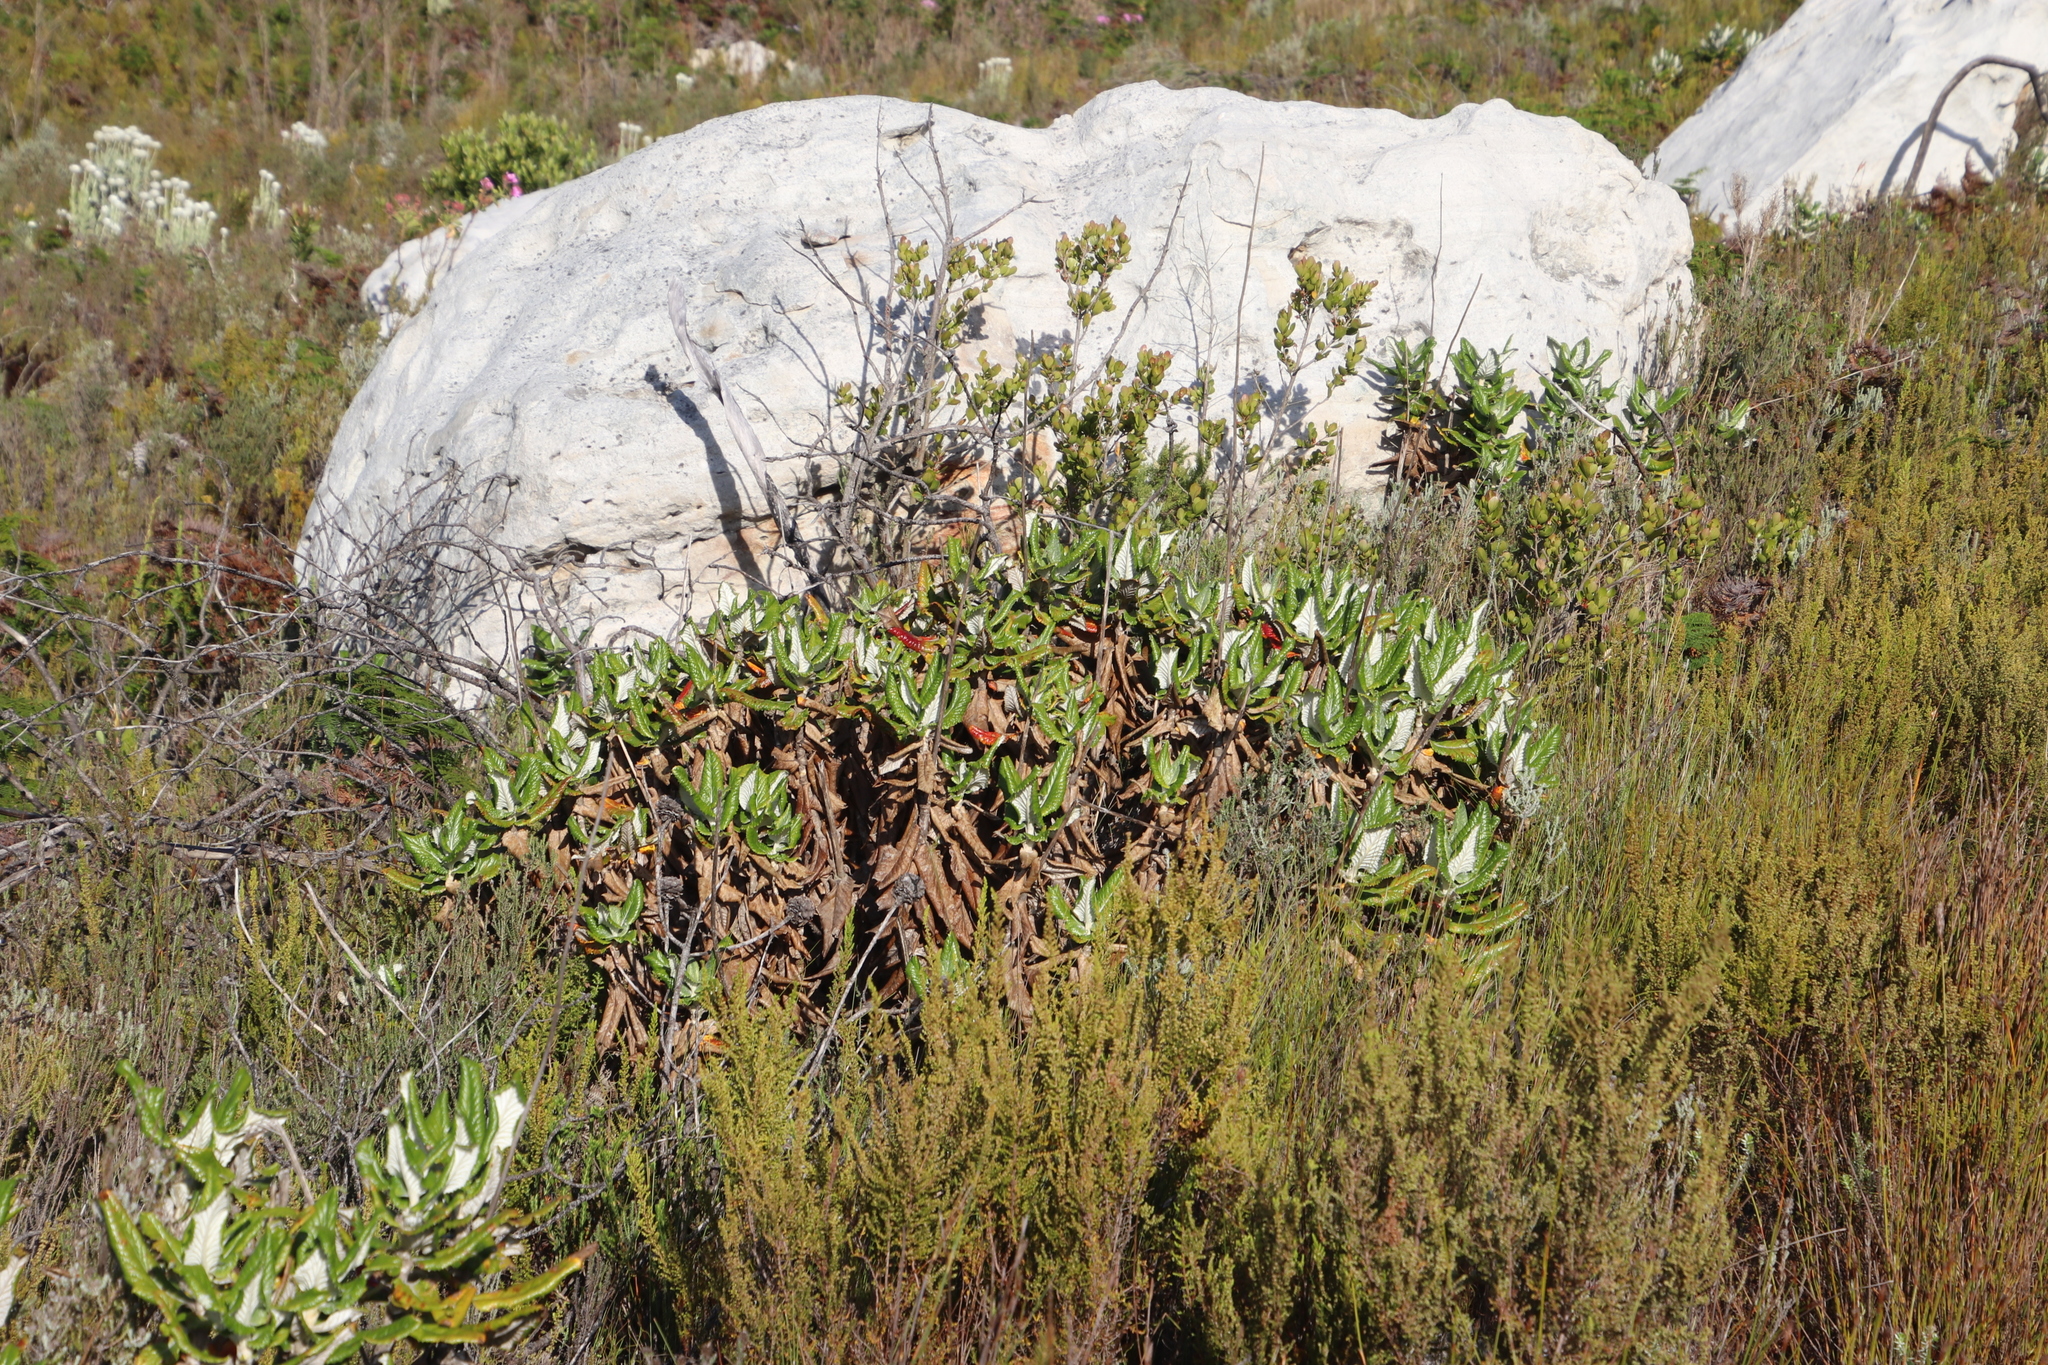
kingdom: Plantae
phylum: Tracheophyta
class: Magnoliopsida
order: Apiales
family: Apiaceae
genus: Hermas
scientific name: Hermas villosa
